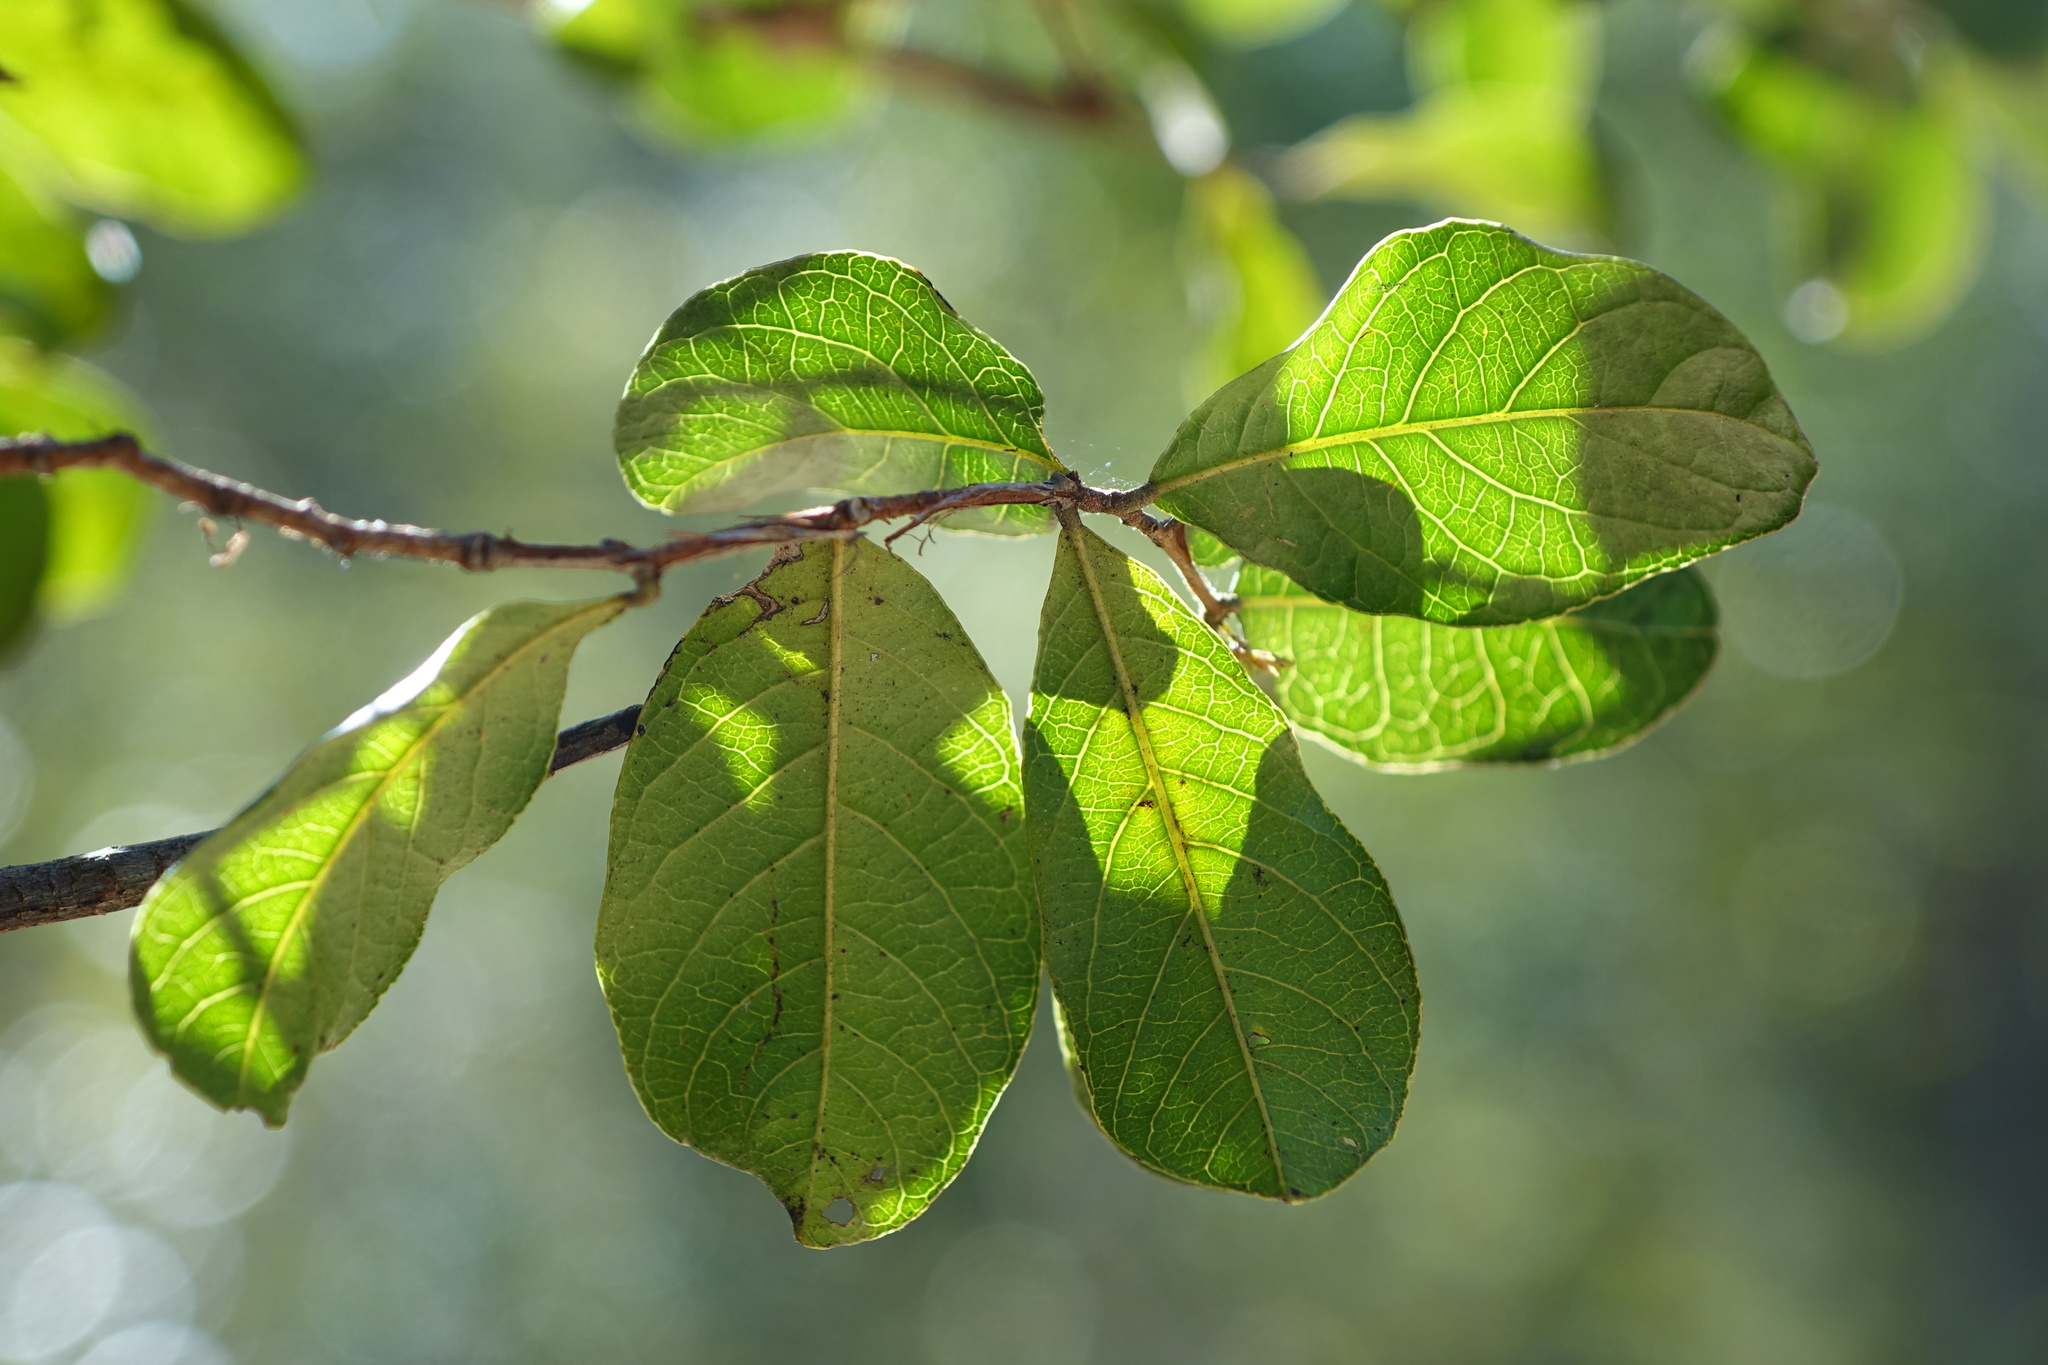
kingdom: Plantae
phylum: Tracheophyta
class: Magnoliopsida
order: Myrtales
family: Combretaceae
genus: Combretum
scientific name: Combretum meridionalis
